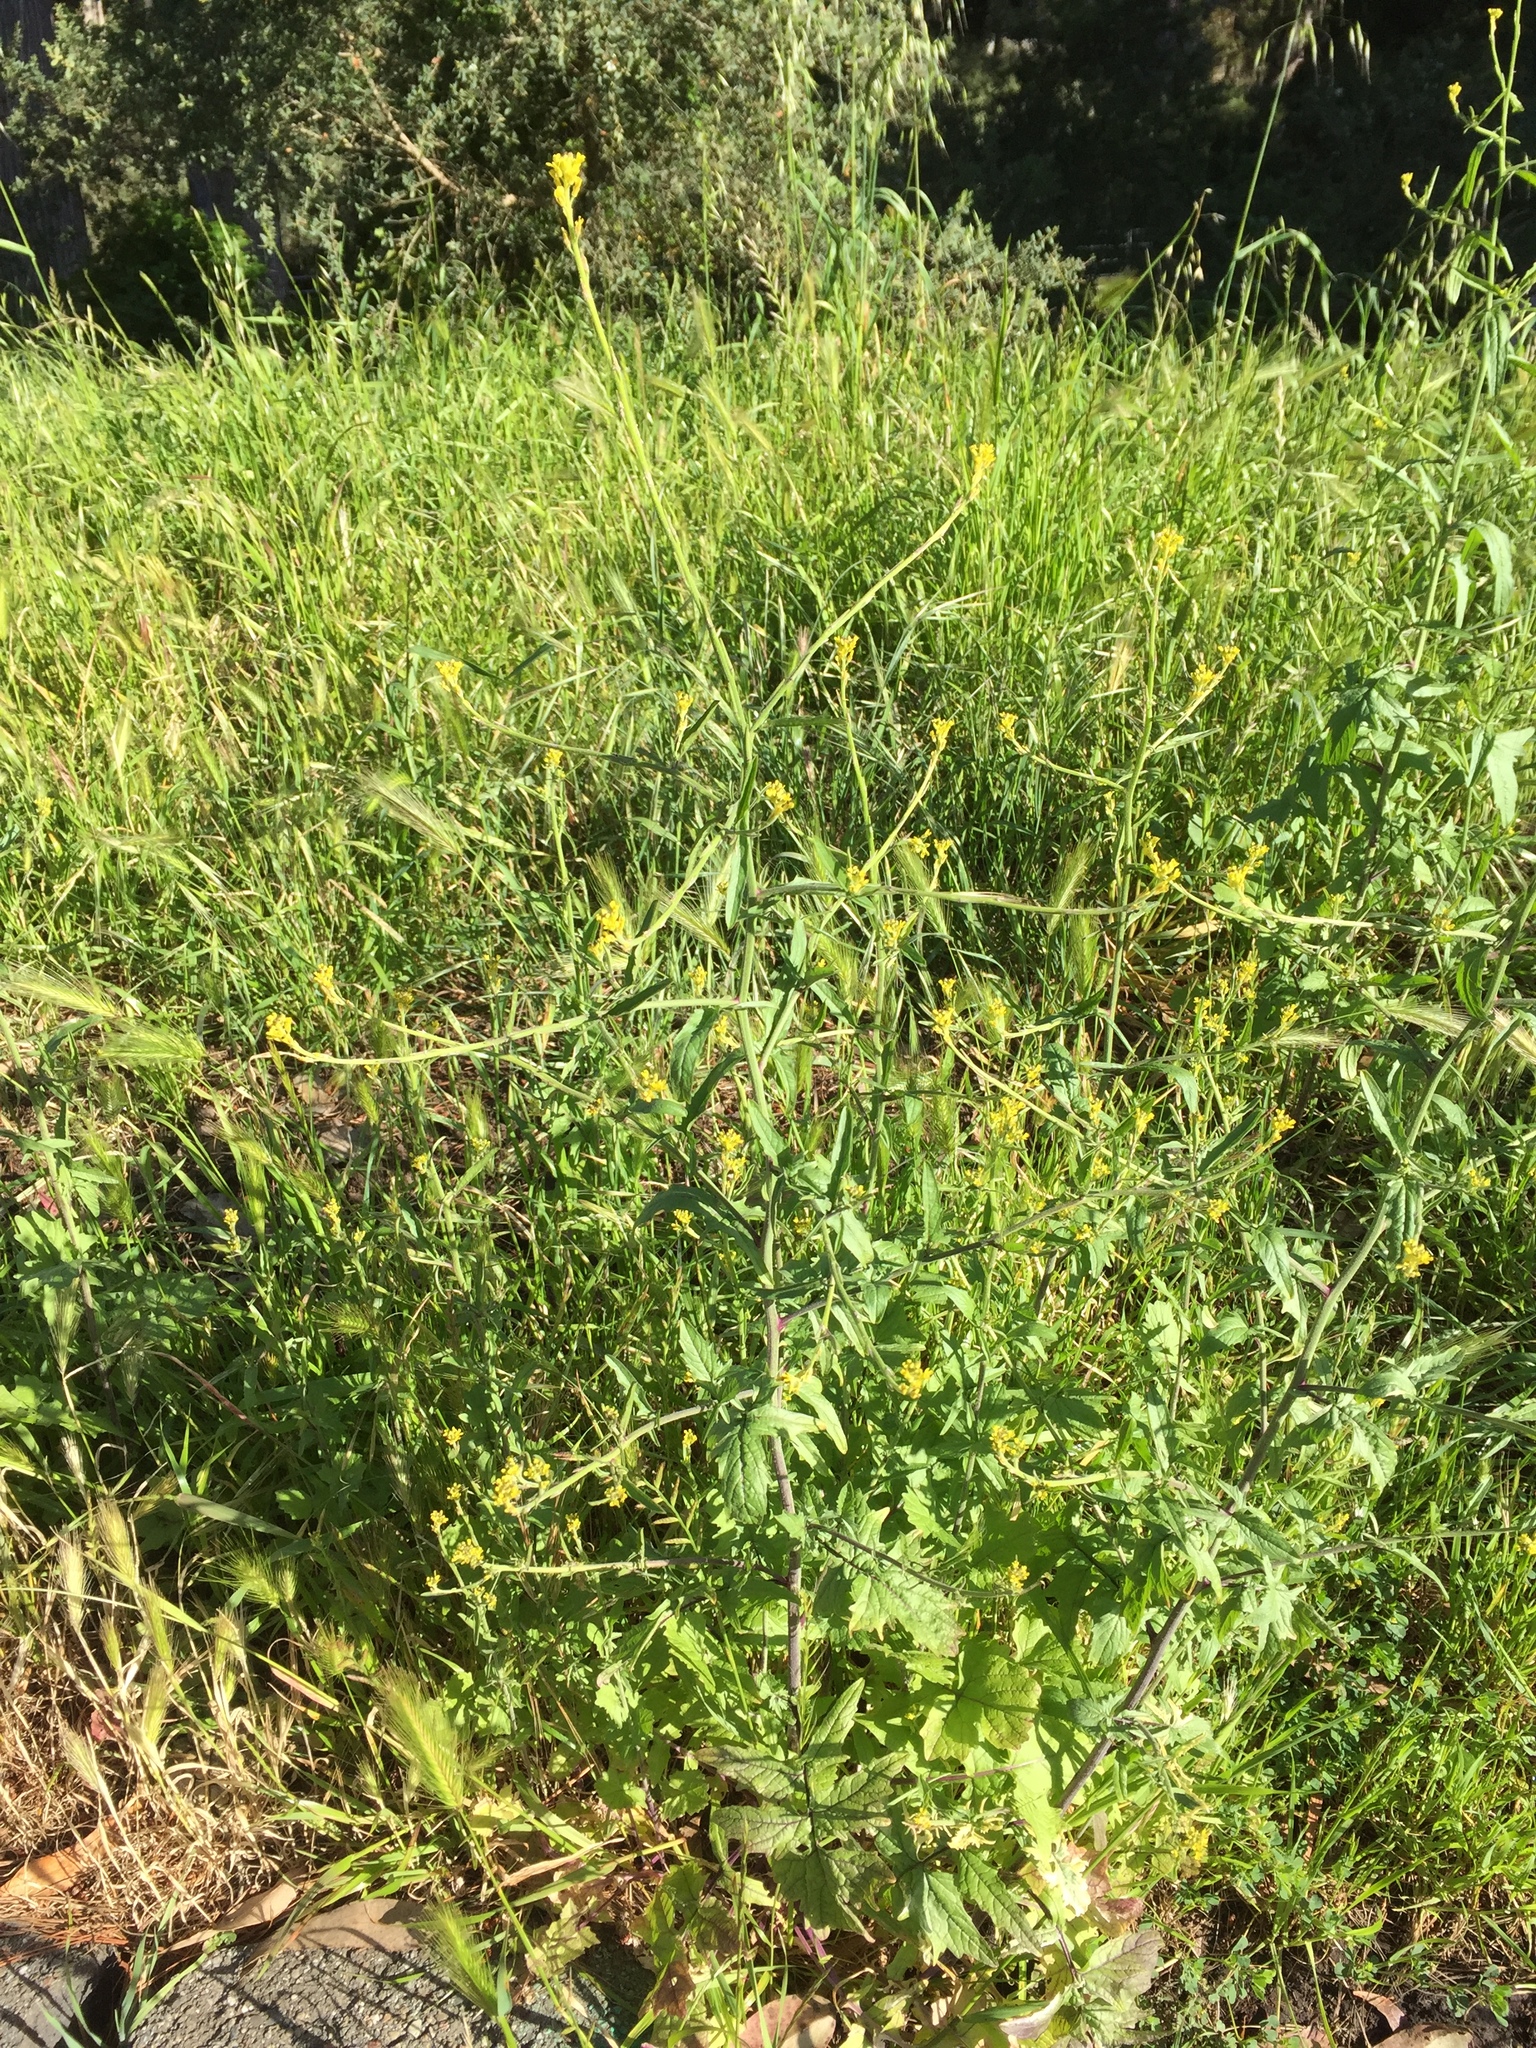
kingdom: Plantae
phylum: Tracheophyta
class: Magnoliopsida
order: Brassicales
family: Brassicaceae
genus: Brassica
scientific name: Brassica rapa
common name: Field mustard
